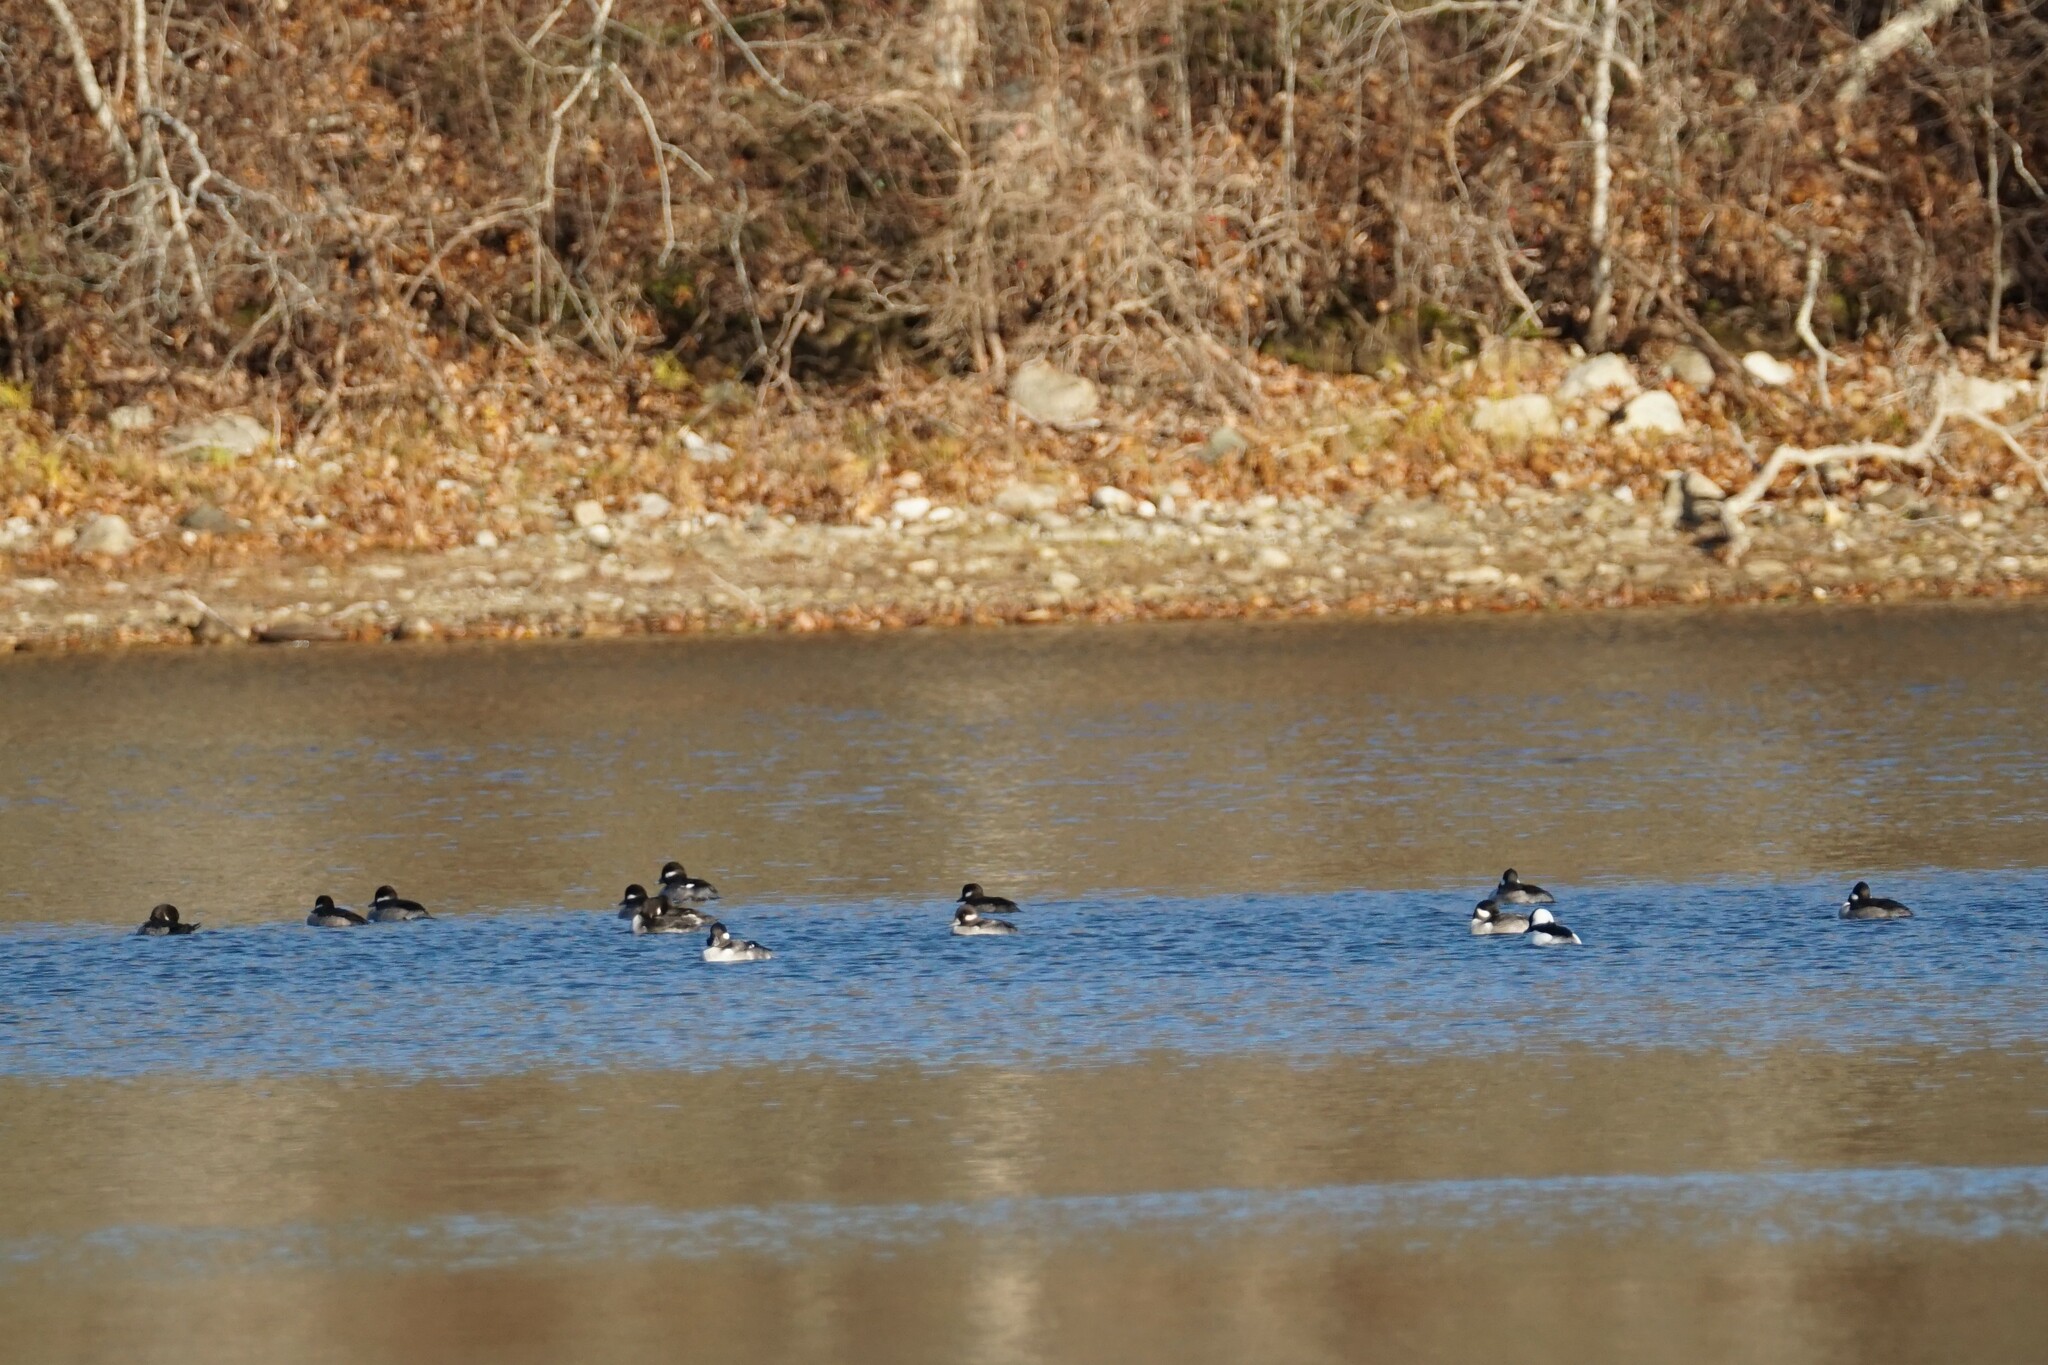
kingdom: Animalia
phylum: Chordata
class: Aves
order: Anseriformes
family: Anatidae
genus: Bucephala
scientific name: Bucephala albeola
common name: Bufflehead
